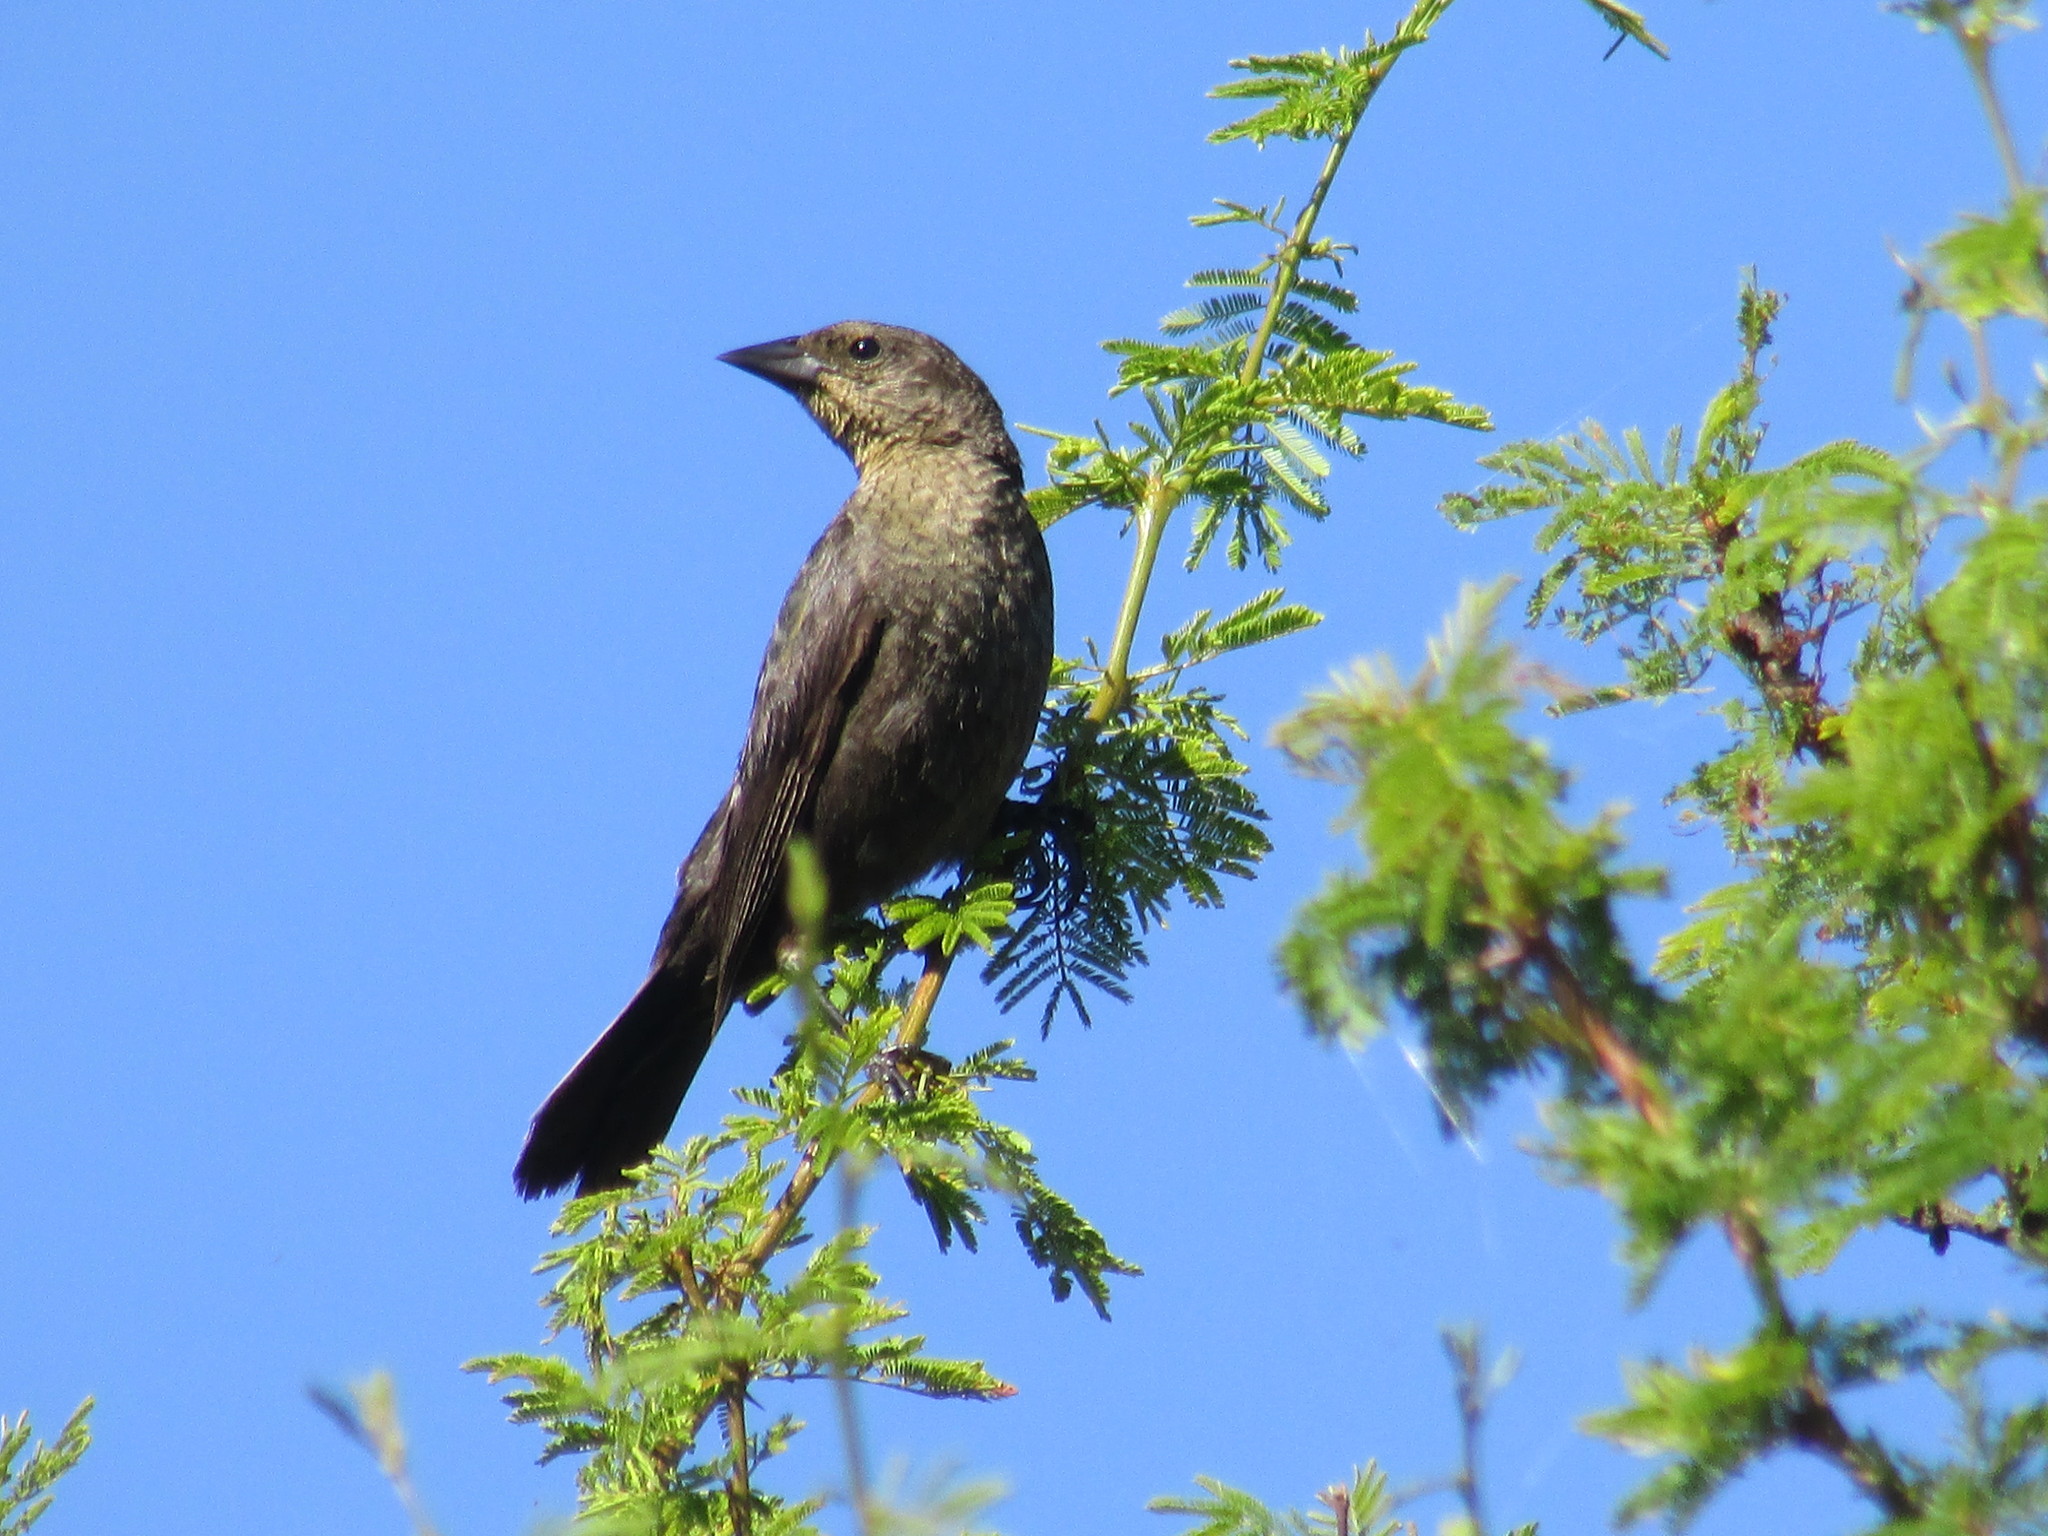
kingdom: Animalia
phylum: Chordata
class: Aves
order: Passeriformes
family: Icteridae
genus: Molothrus
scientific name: Molothrus bonariensis
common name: Shiny cowbird
